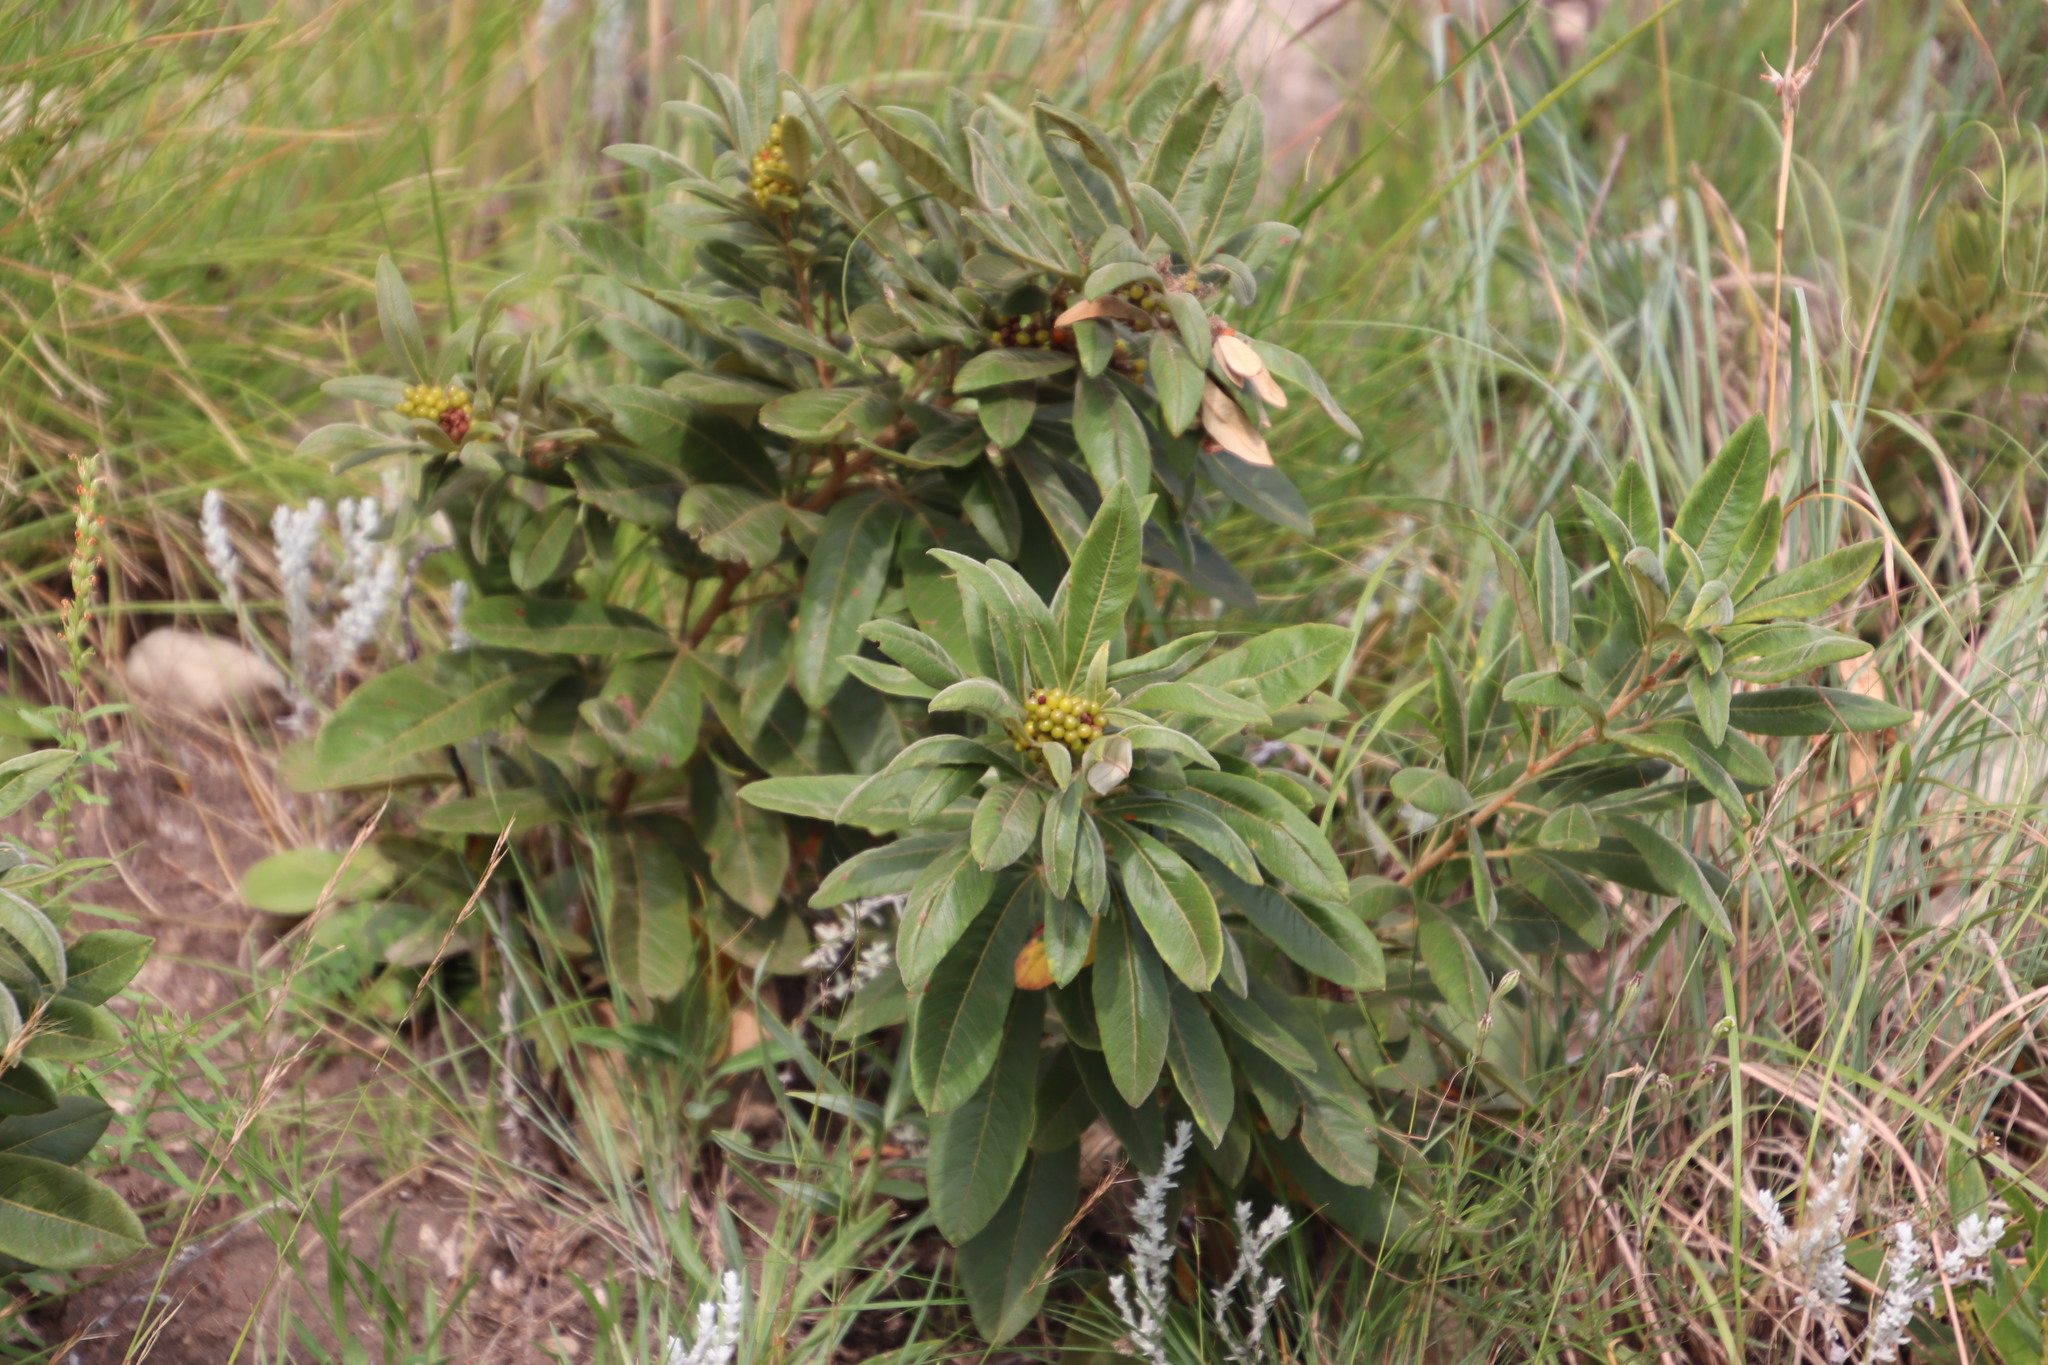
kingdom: Plantae
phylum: Tracheophyta
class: Magnoliopsida
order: Sapindales
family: Anacardiaceae
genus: Searsia
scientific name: Searsia discolor
